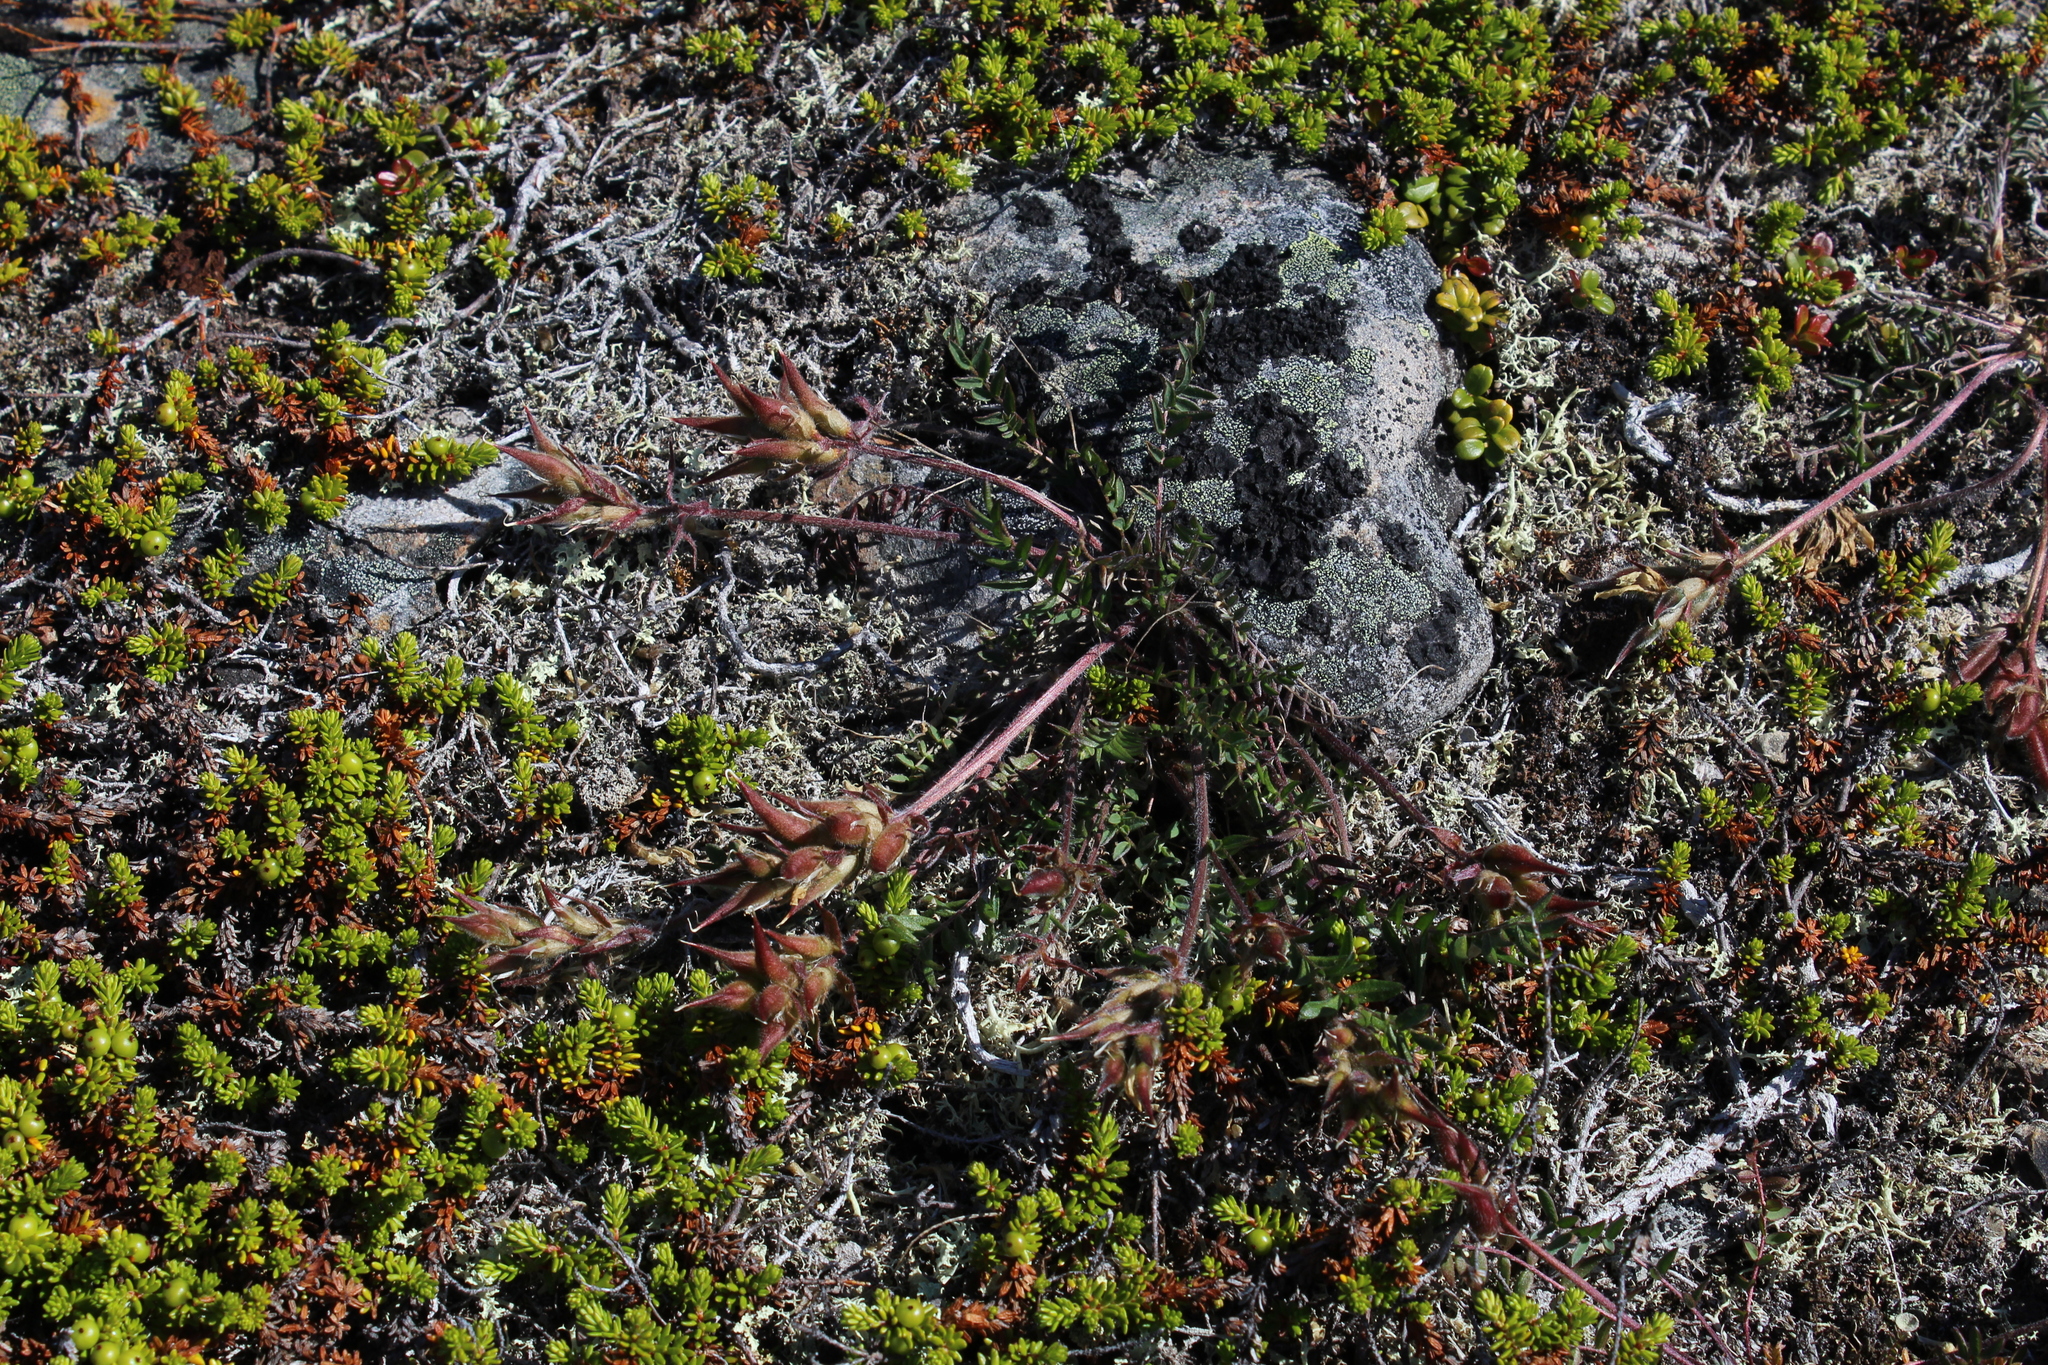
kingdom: Plantae
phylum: Tracheophyta
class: Magnoliopsida
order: Fabales
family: Fabaceae
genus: Oxytropis
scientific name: Oxytropis sordida
